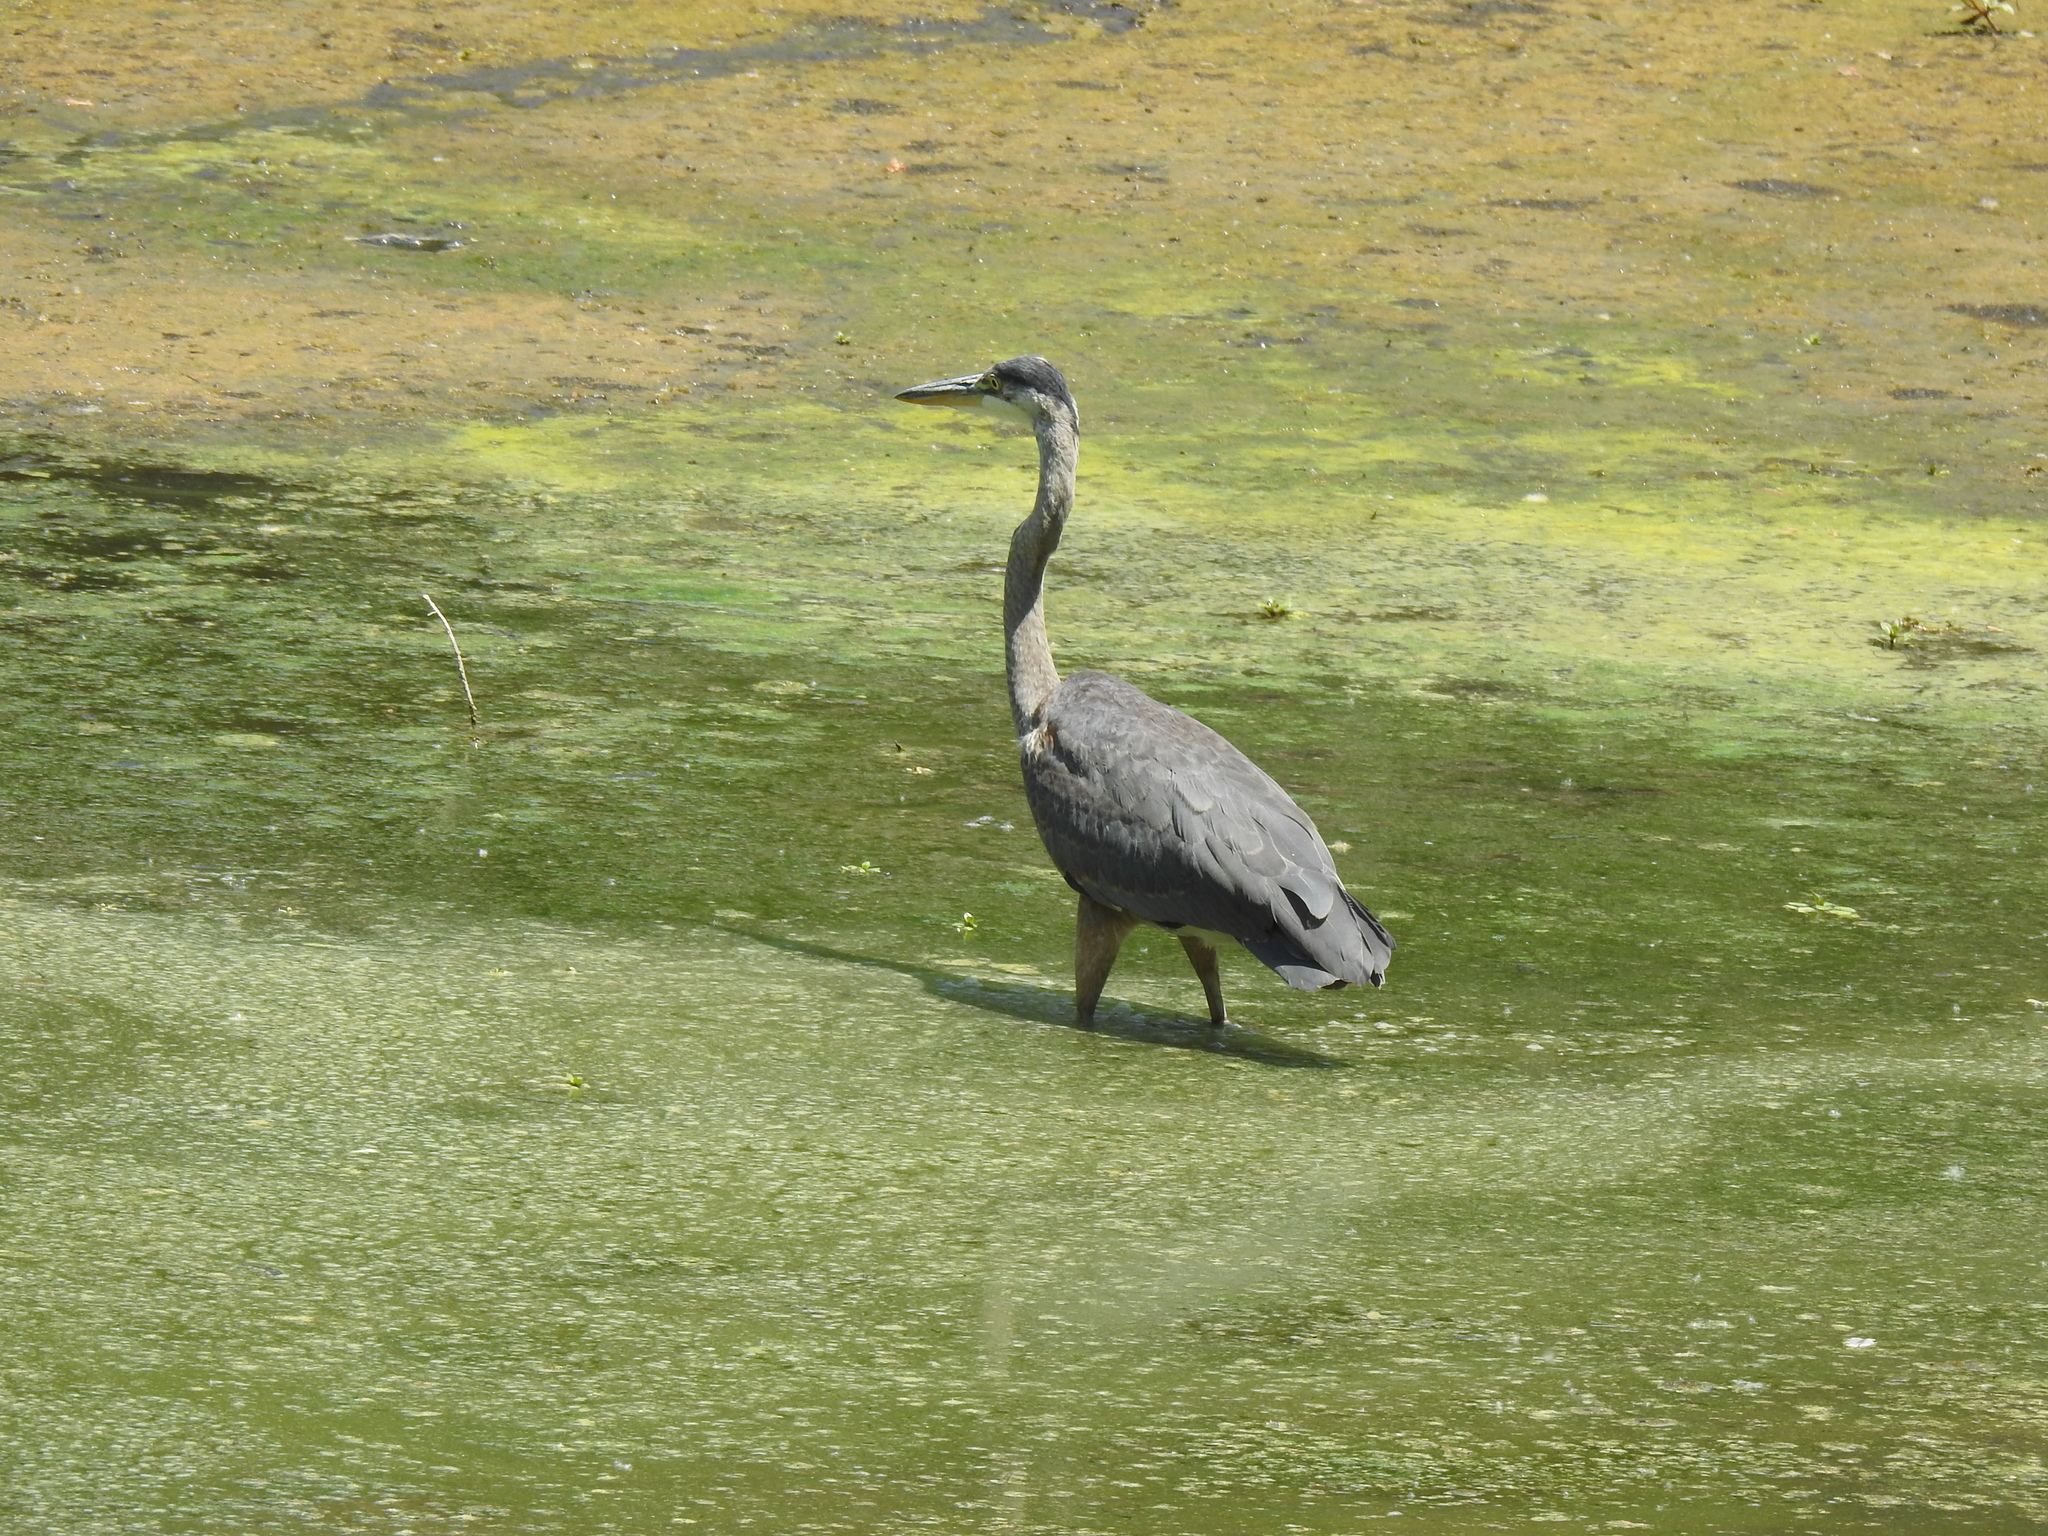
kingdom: Animalia
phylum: Chordata
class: Aves
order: Pelecaniformes
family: Ardeidae
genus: Ardea
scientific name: Ardea herodias
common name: Great blue heron
